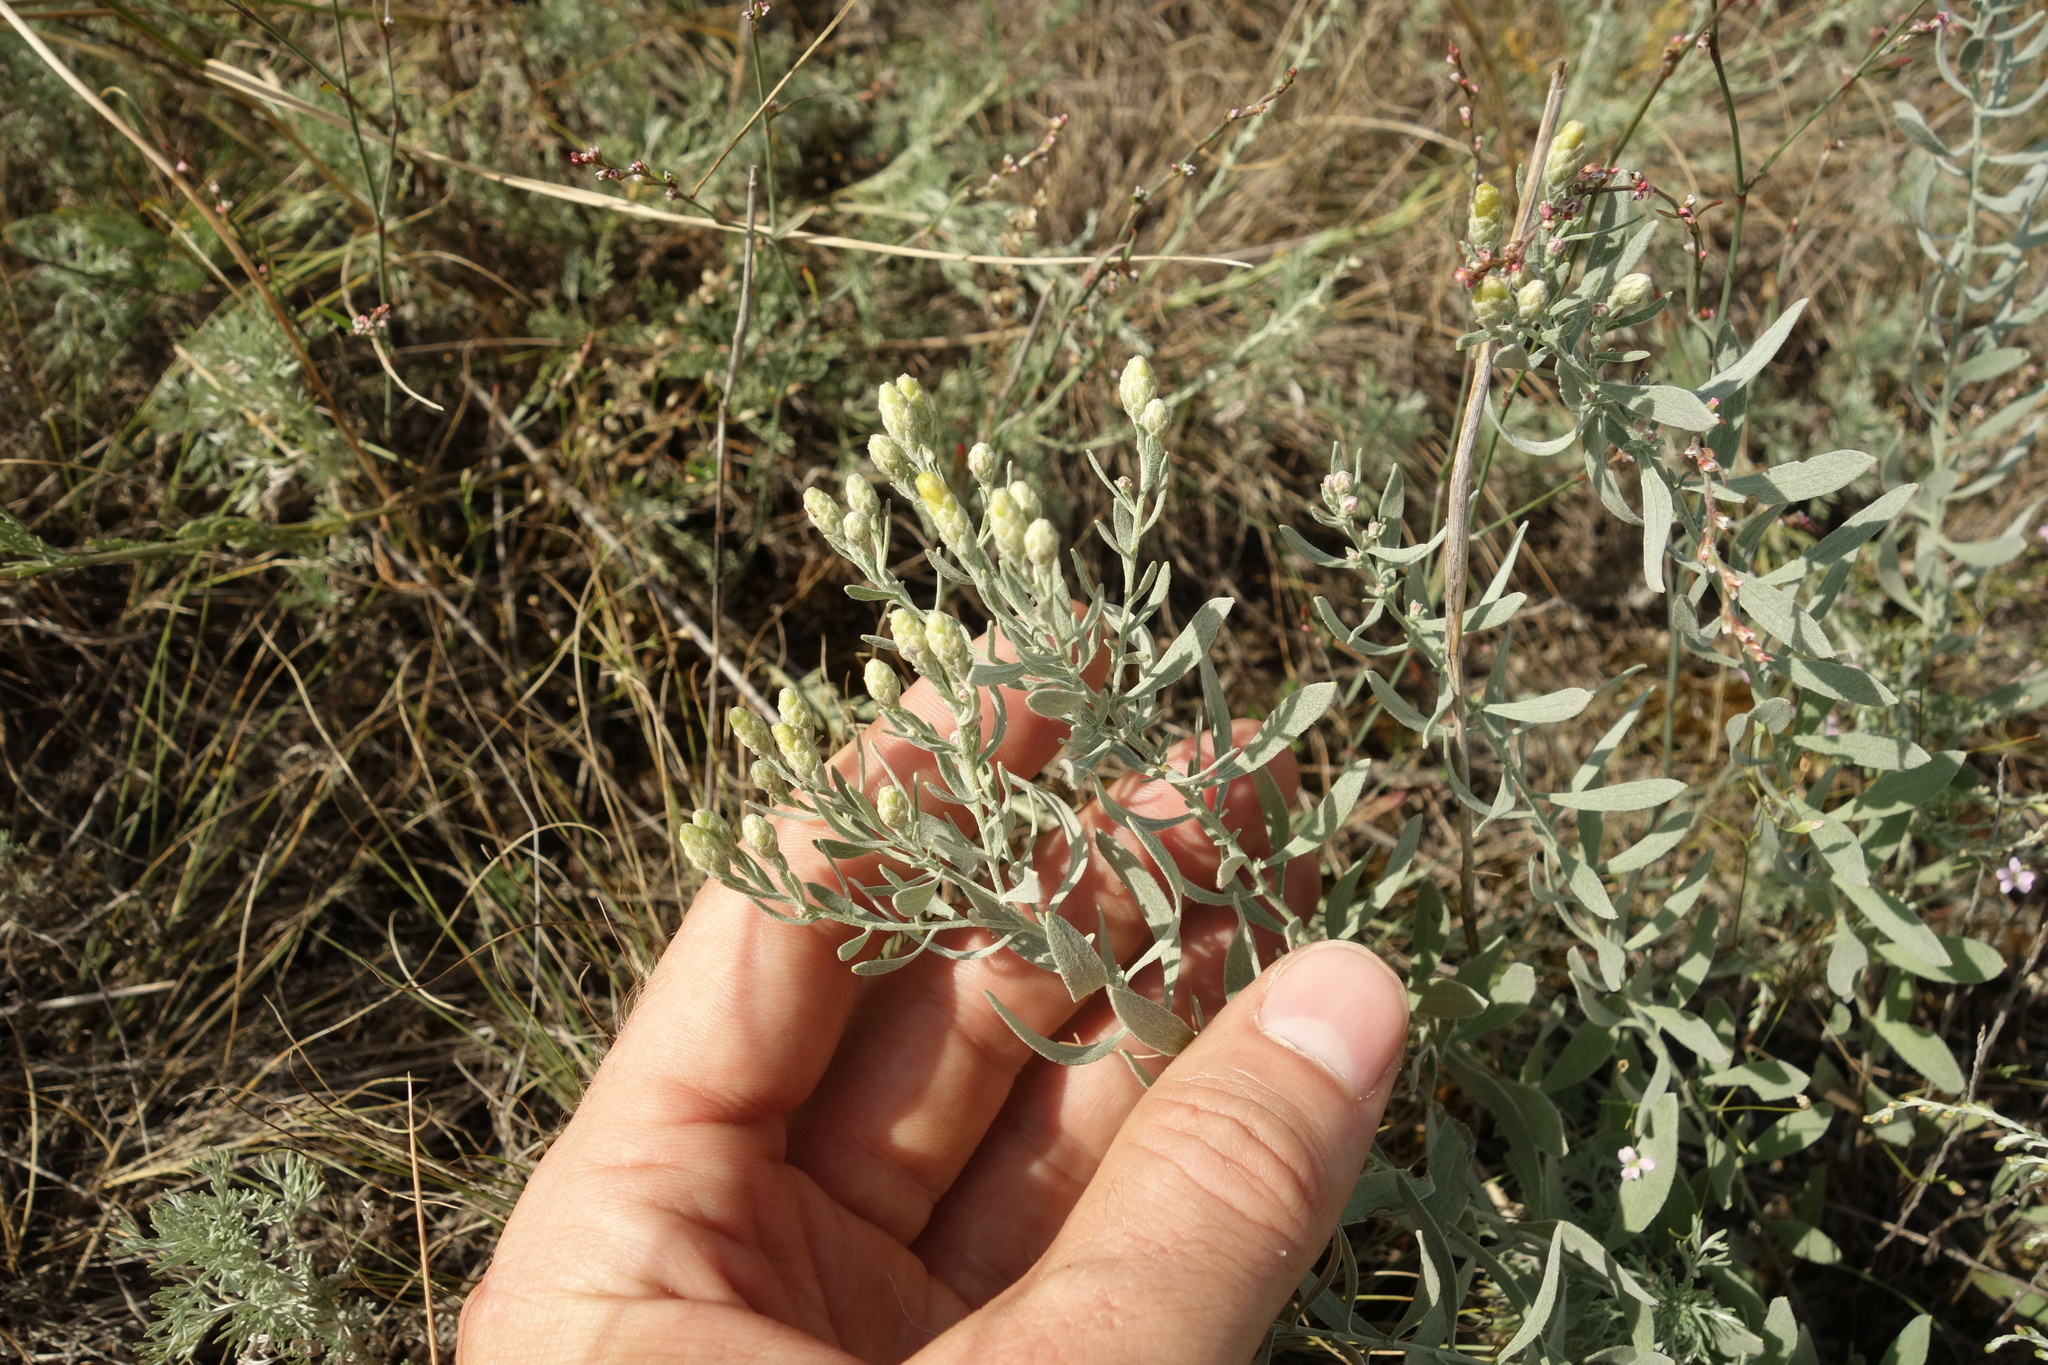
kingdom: Plantae
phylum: Tracheophyta
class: Magnoliopsida
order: Asterales
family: Asteraceae
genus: Galatella
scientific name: Galatella villosa
